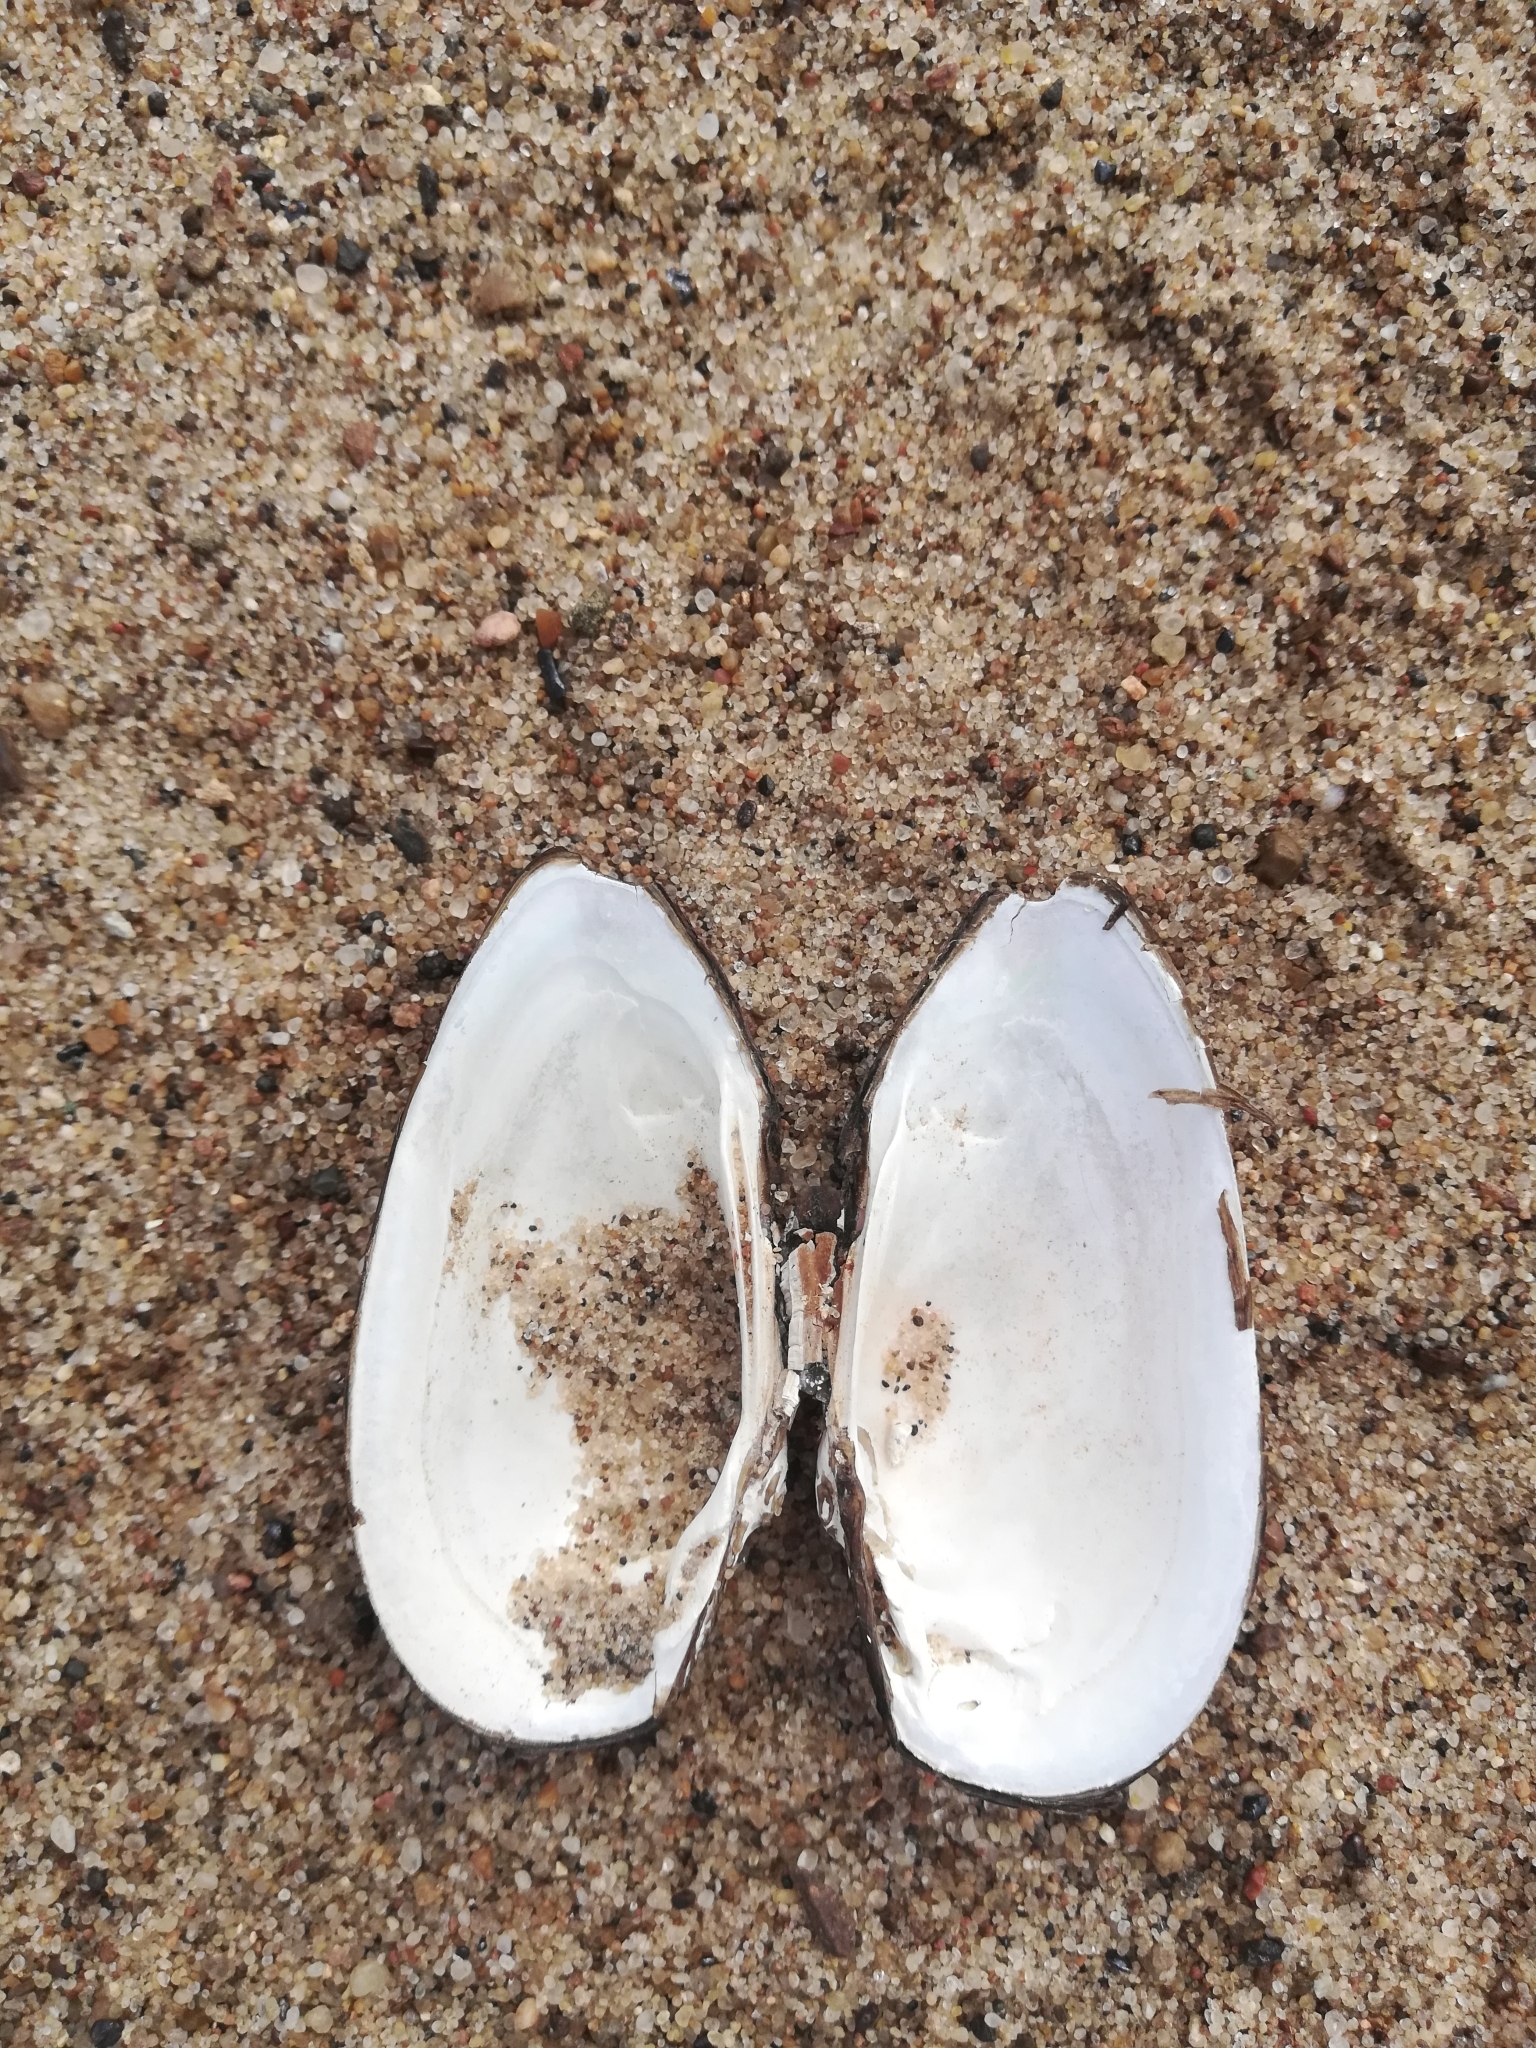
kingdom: Animalia
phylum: Mollusca
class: Bivalvia
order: Unionida
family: Unionidae
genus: Unio
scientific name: Unio tumidus
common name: Swollen river mussel
